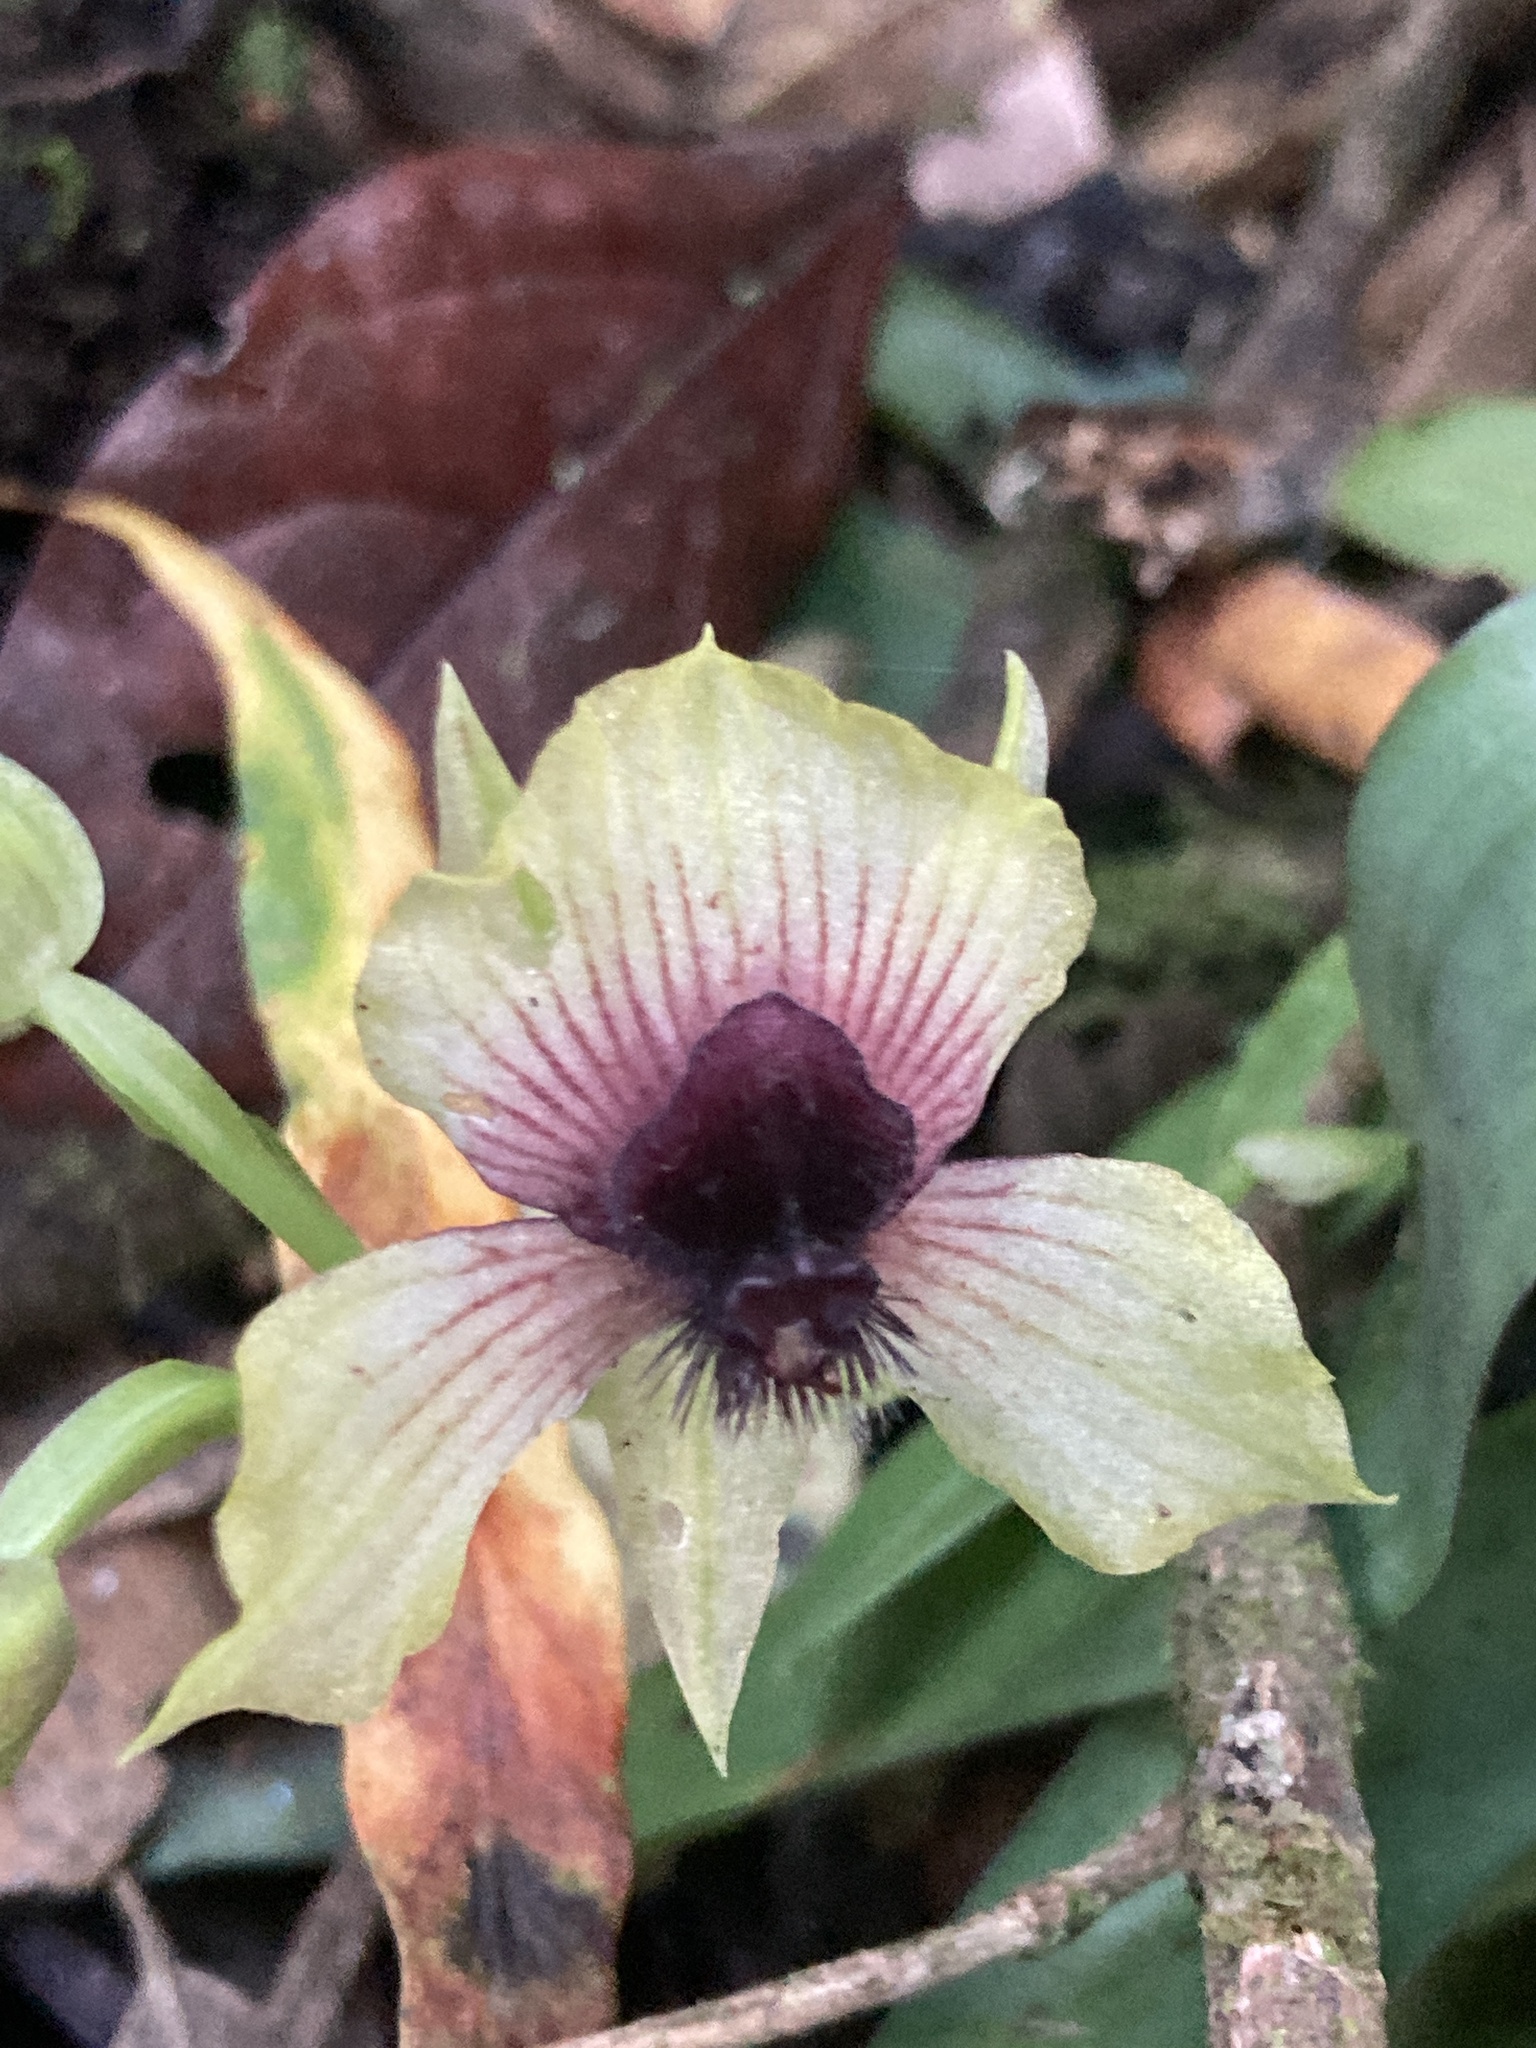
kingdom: Plantae
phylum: Tracheophyta
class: Liliopsida
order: Asparagales
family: Orchidaceae
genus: Telipogon
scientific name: Telipogon latifolius
